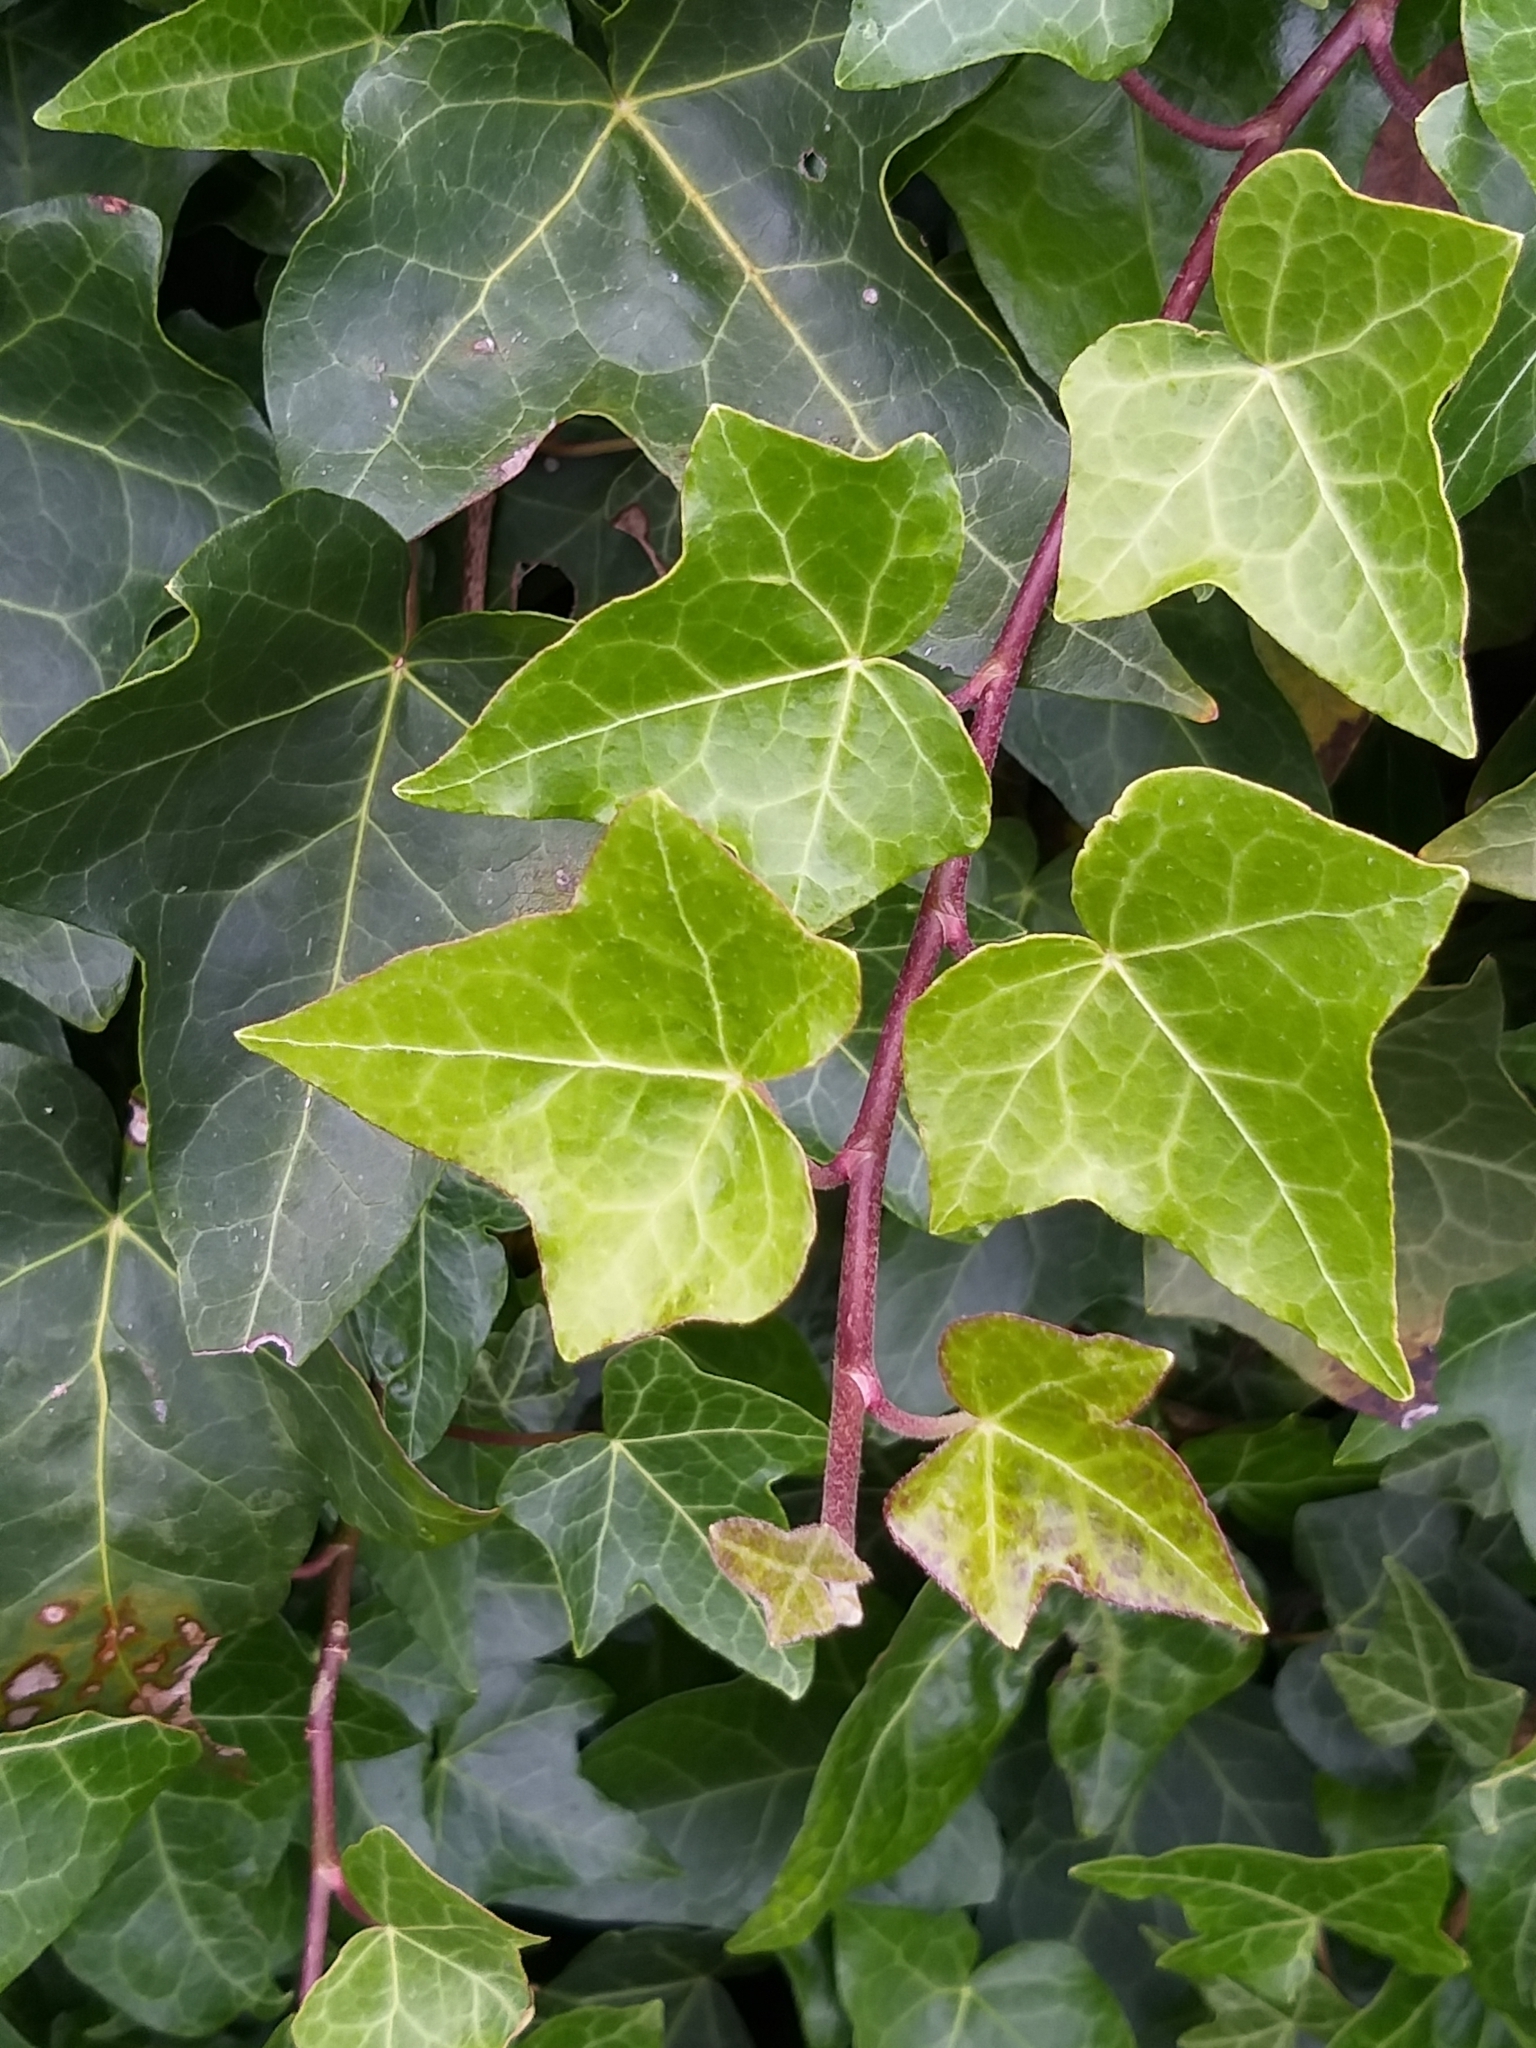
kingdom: Plantae
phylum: Tracheophyta
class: Magnoliopsida
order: Apiales
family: Araliaceae
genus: Hedera
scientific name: Hedera helix
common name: Ivy
